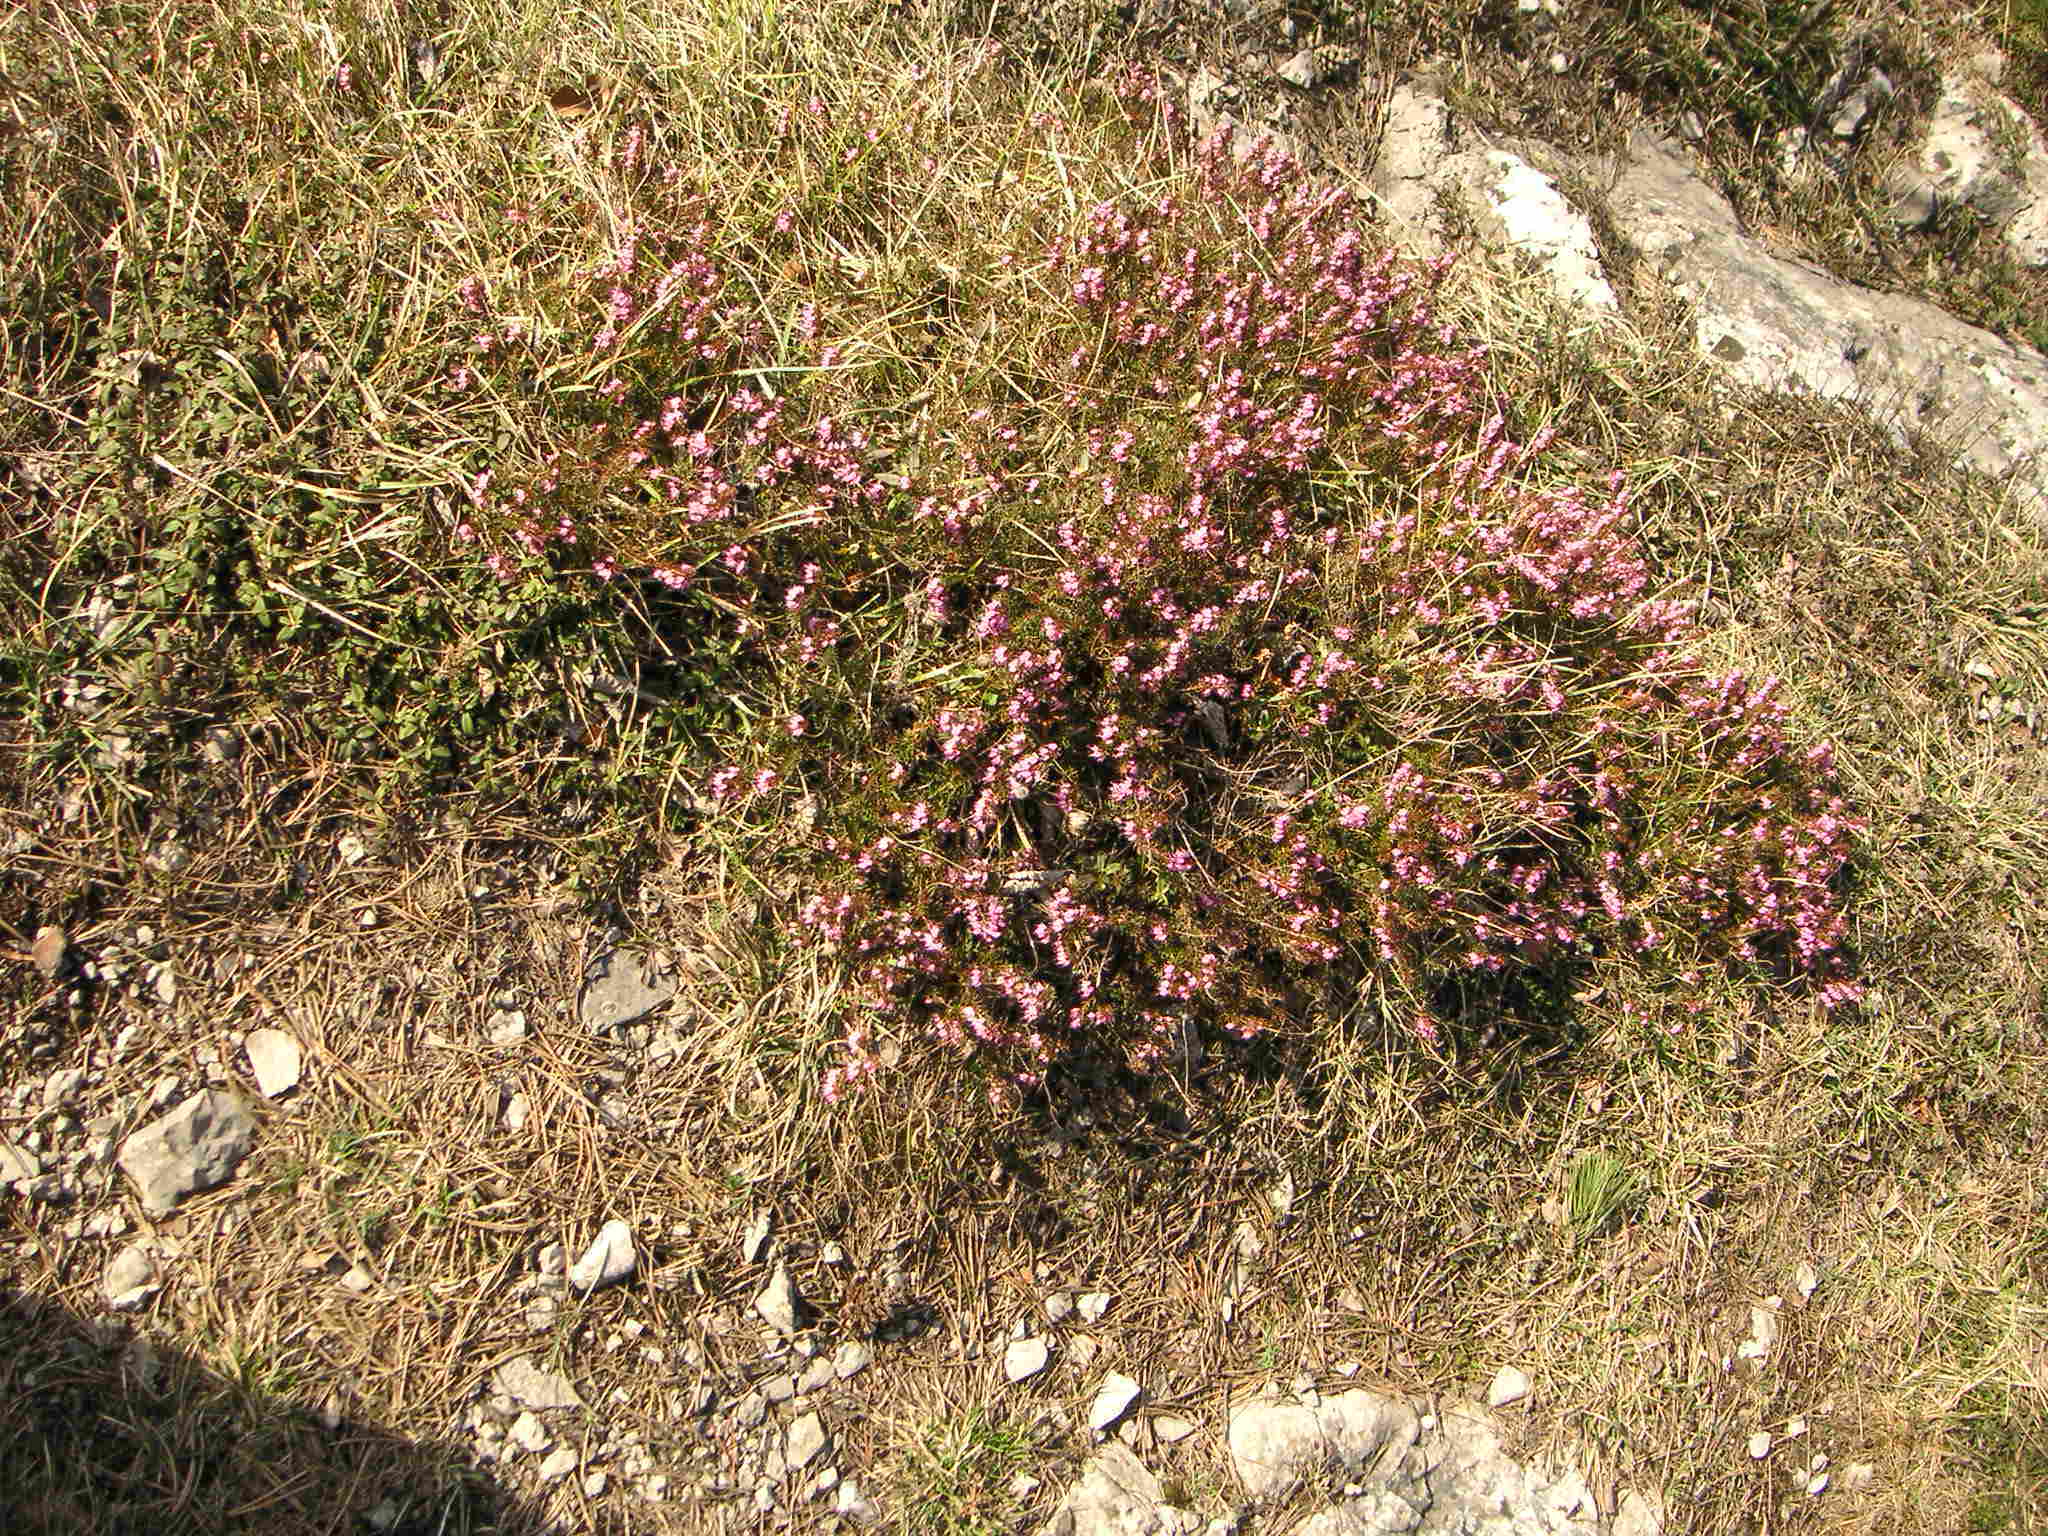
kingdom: Plantae
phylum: Tracheophyta
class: Magnoliopsida
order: Ericales
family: Ericaceae
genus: Erica
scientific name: Erica carnea
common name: Winter heath
